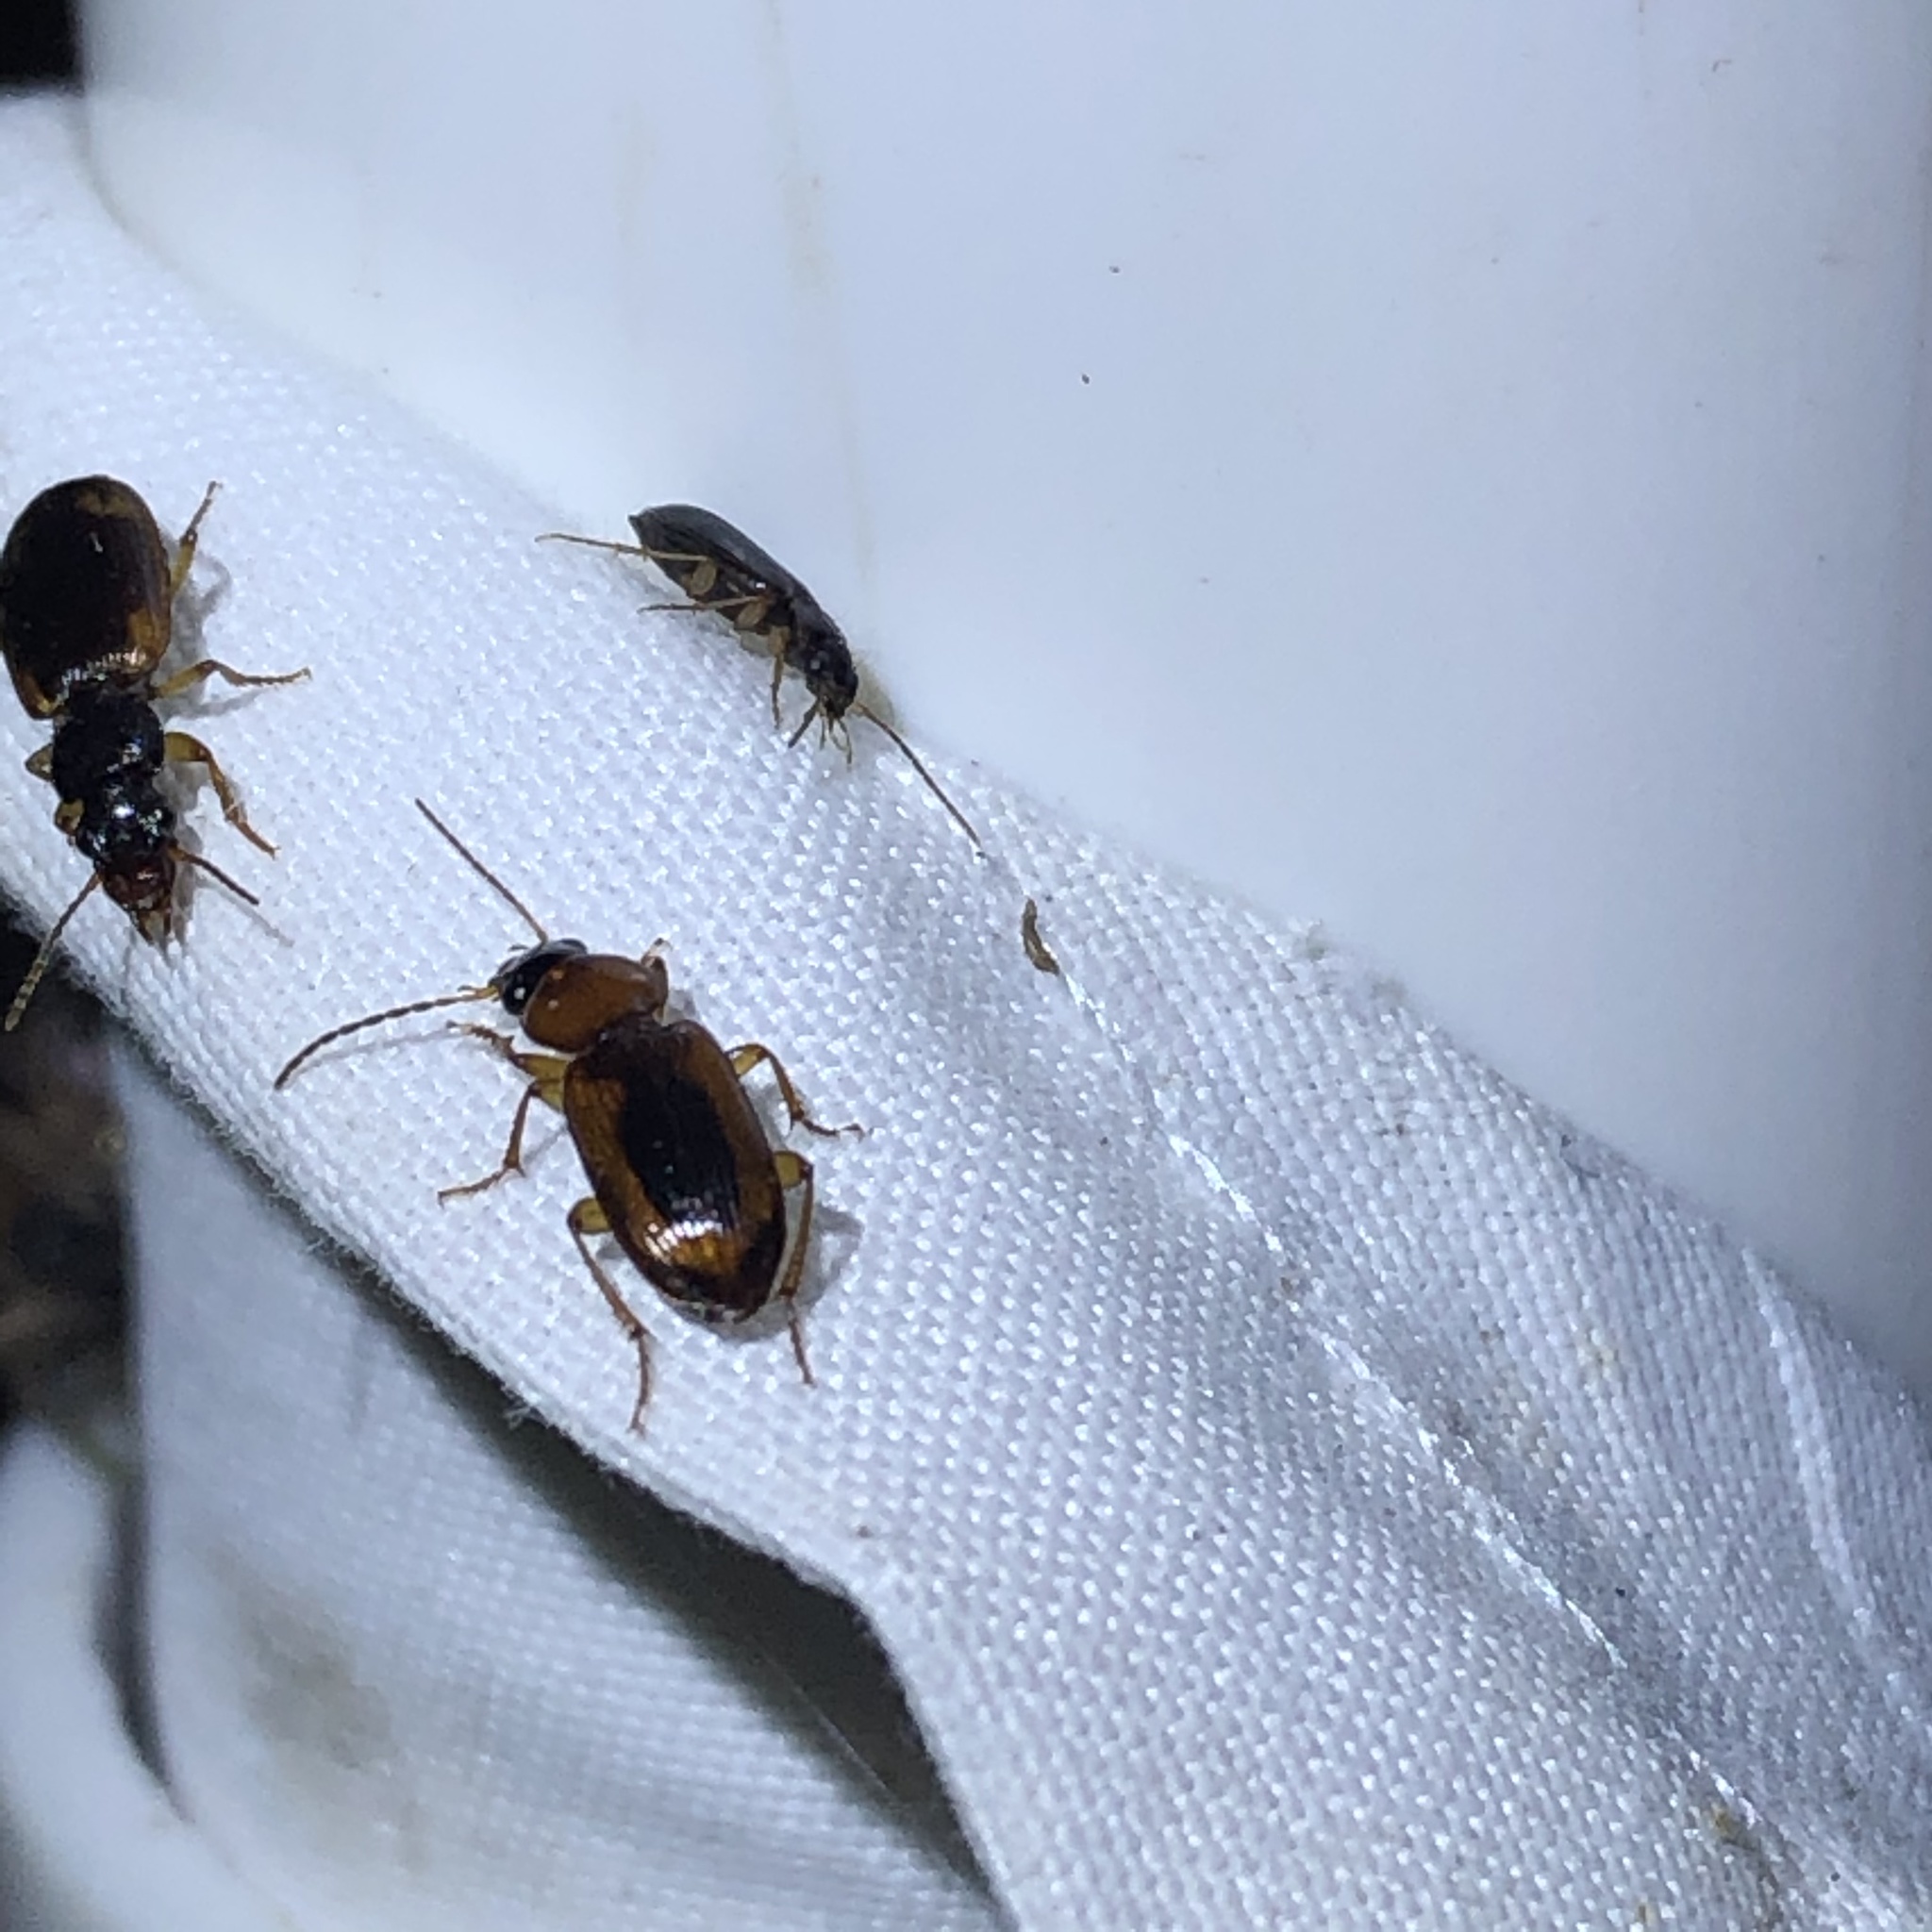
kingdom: Animalia
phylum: Arthropoda
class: Insecta
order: Coleoptera
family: Carabidae
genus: Stenolophus
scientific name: Stenolophus dissimilis
